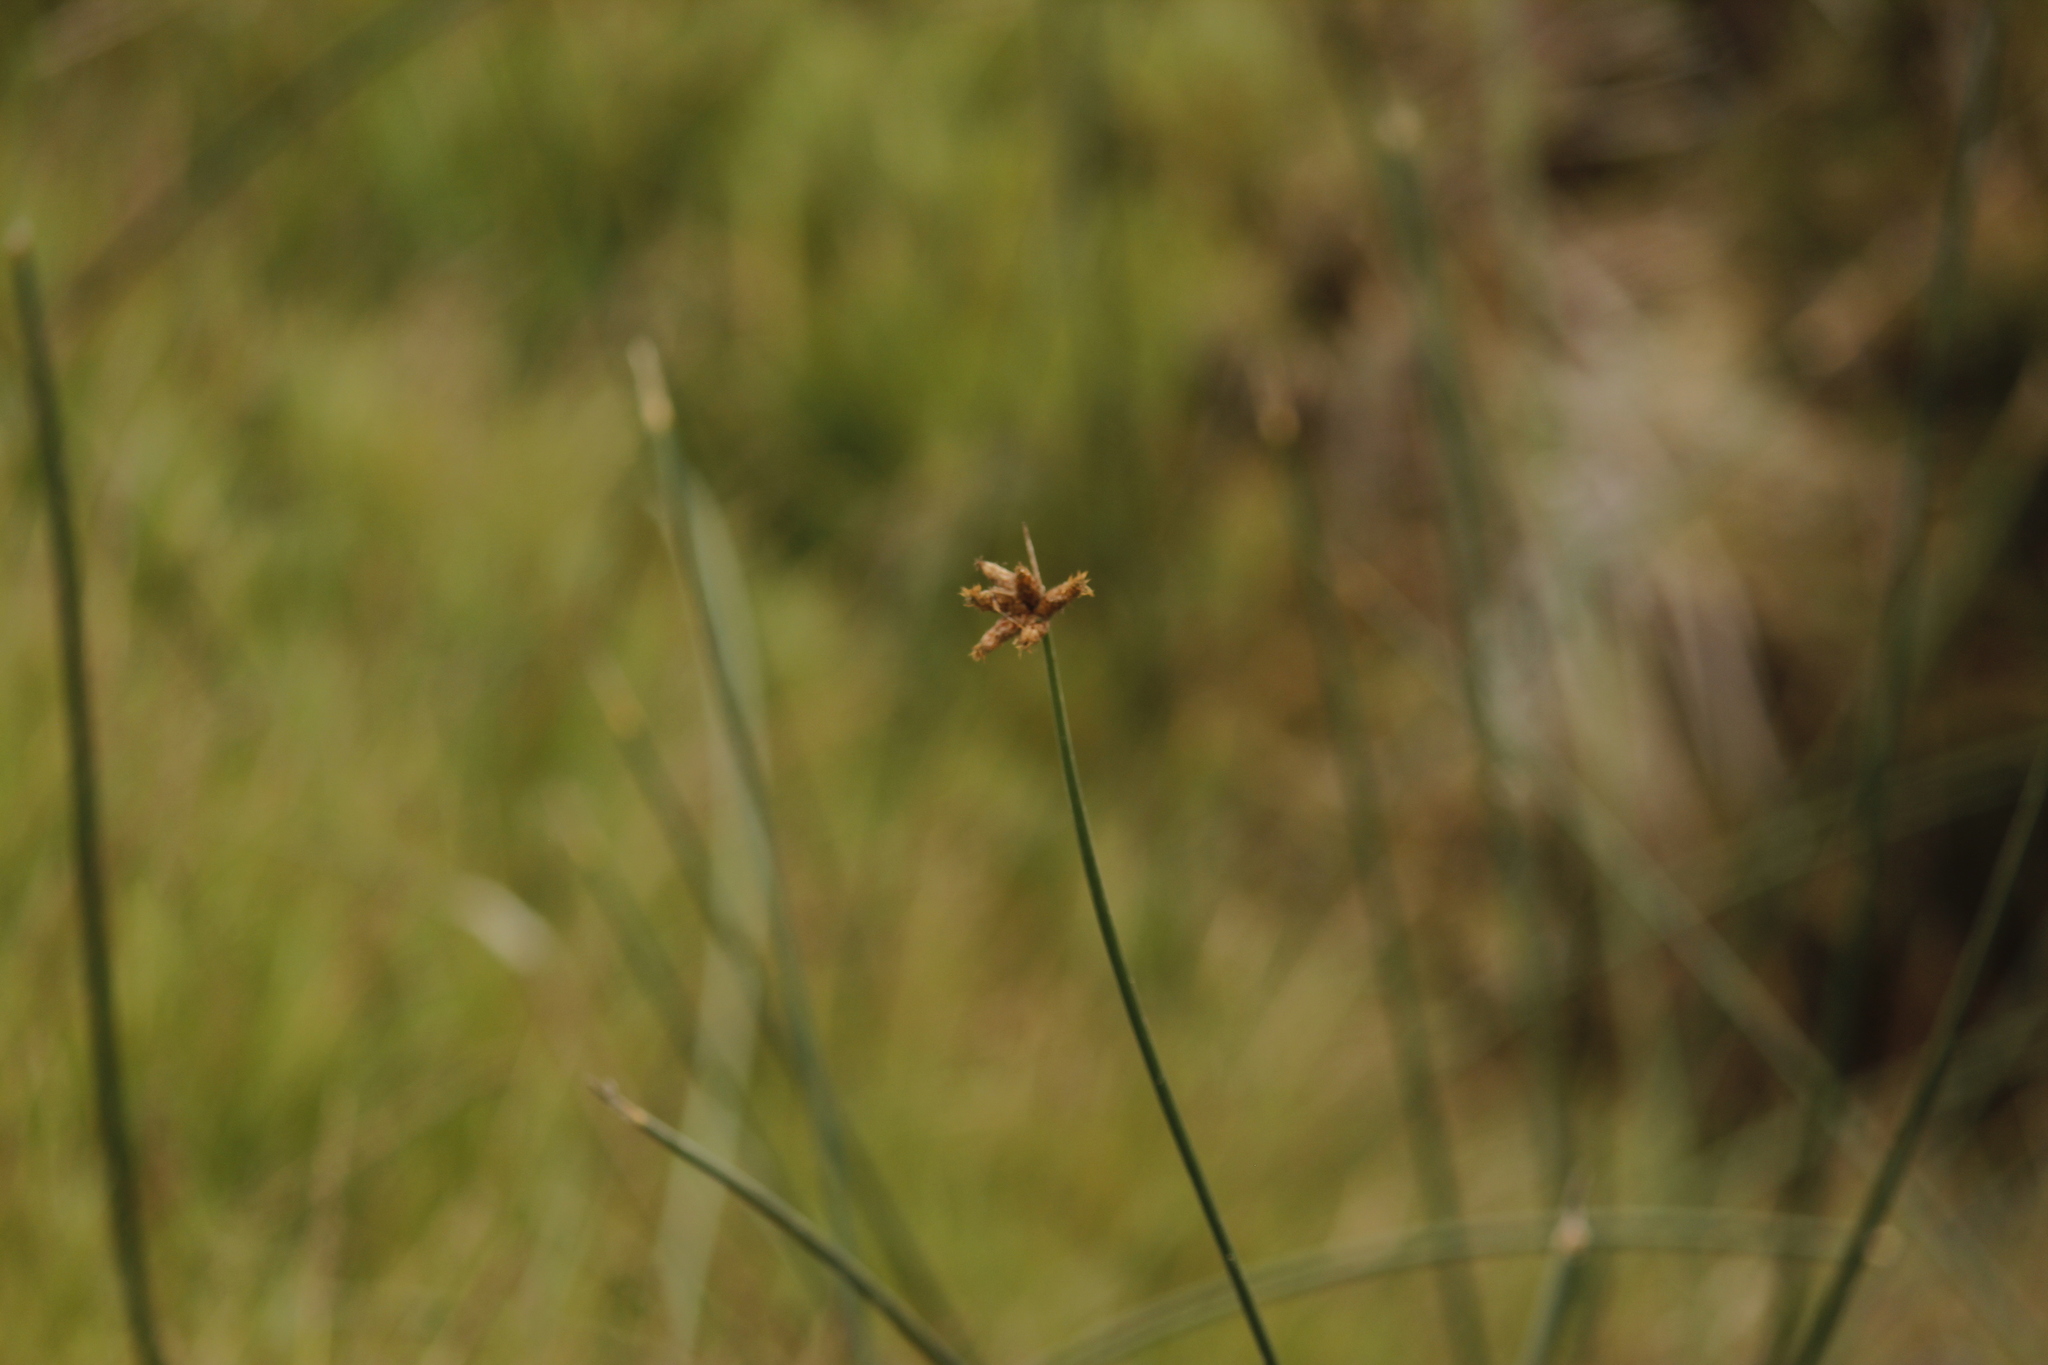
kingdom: Plantae
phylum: Tracheophyta
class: Liliopsida
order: Poales
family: Cyperaceae
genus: Schoenoplectus
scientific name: Schoenoplectus americanus
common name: American three-square bulrush
